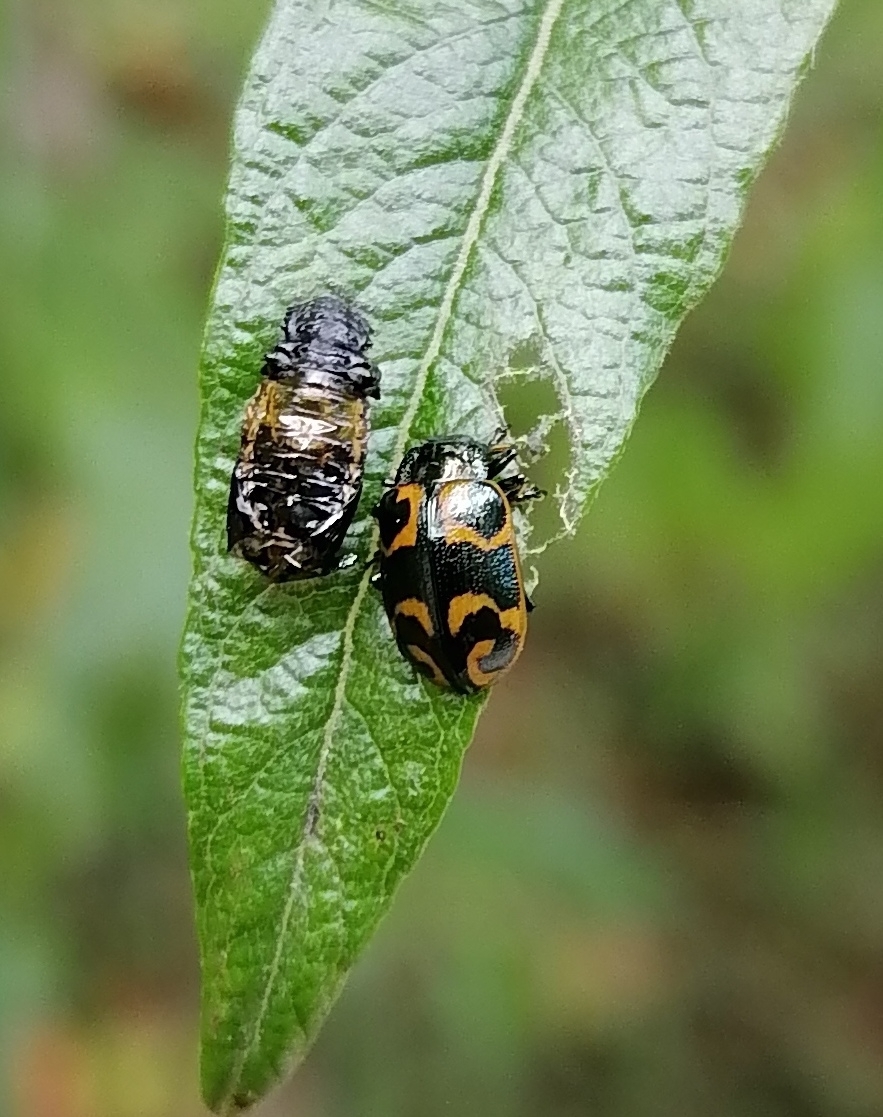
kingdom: Animalia
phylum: Arthropoda
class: Insecta
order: Coleoptera
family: Chrysomelidae
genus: Chrysomela
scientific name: Chrysomela lapponica
